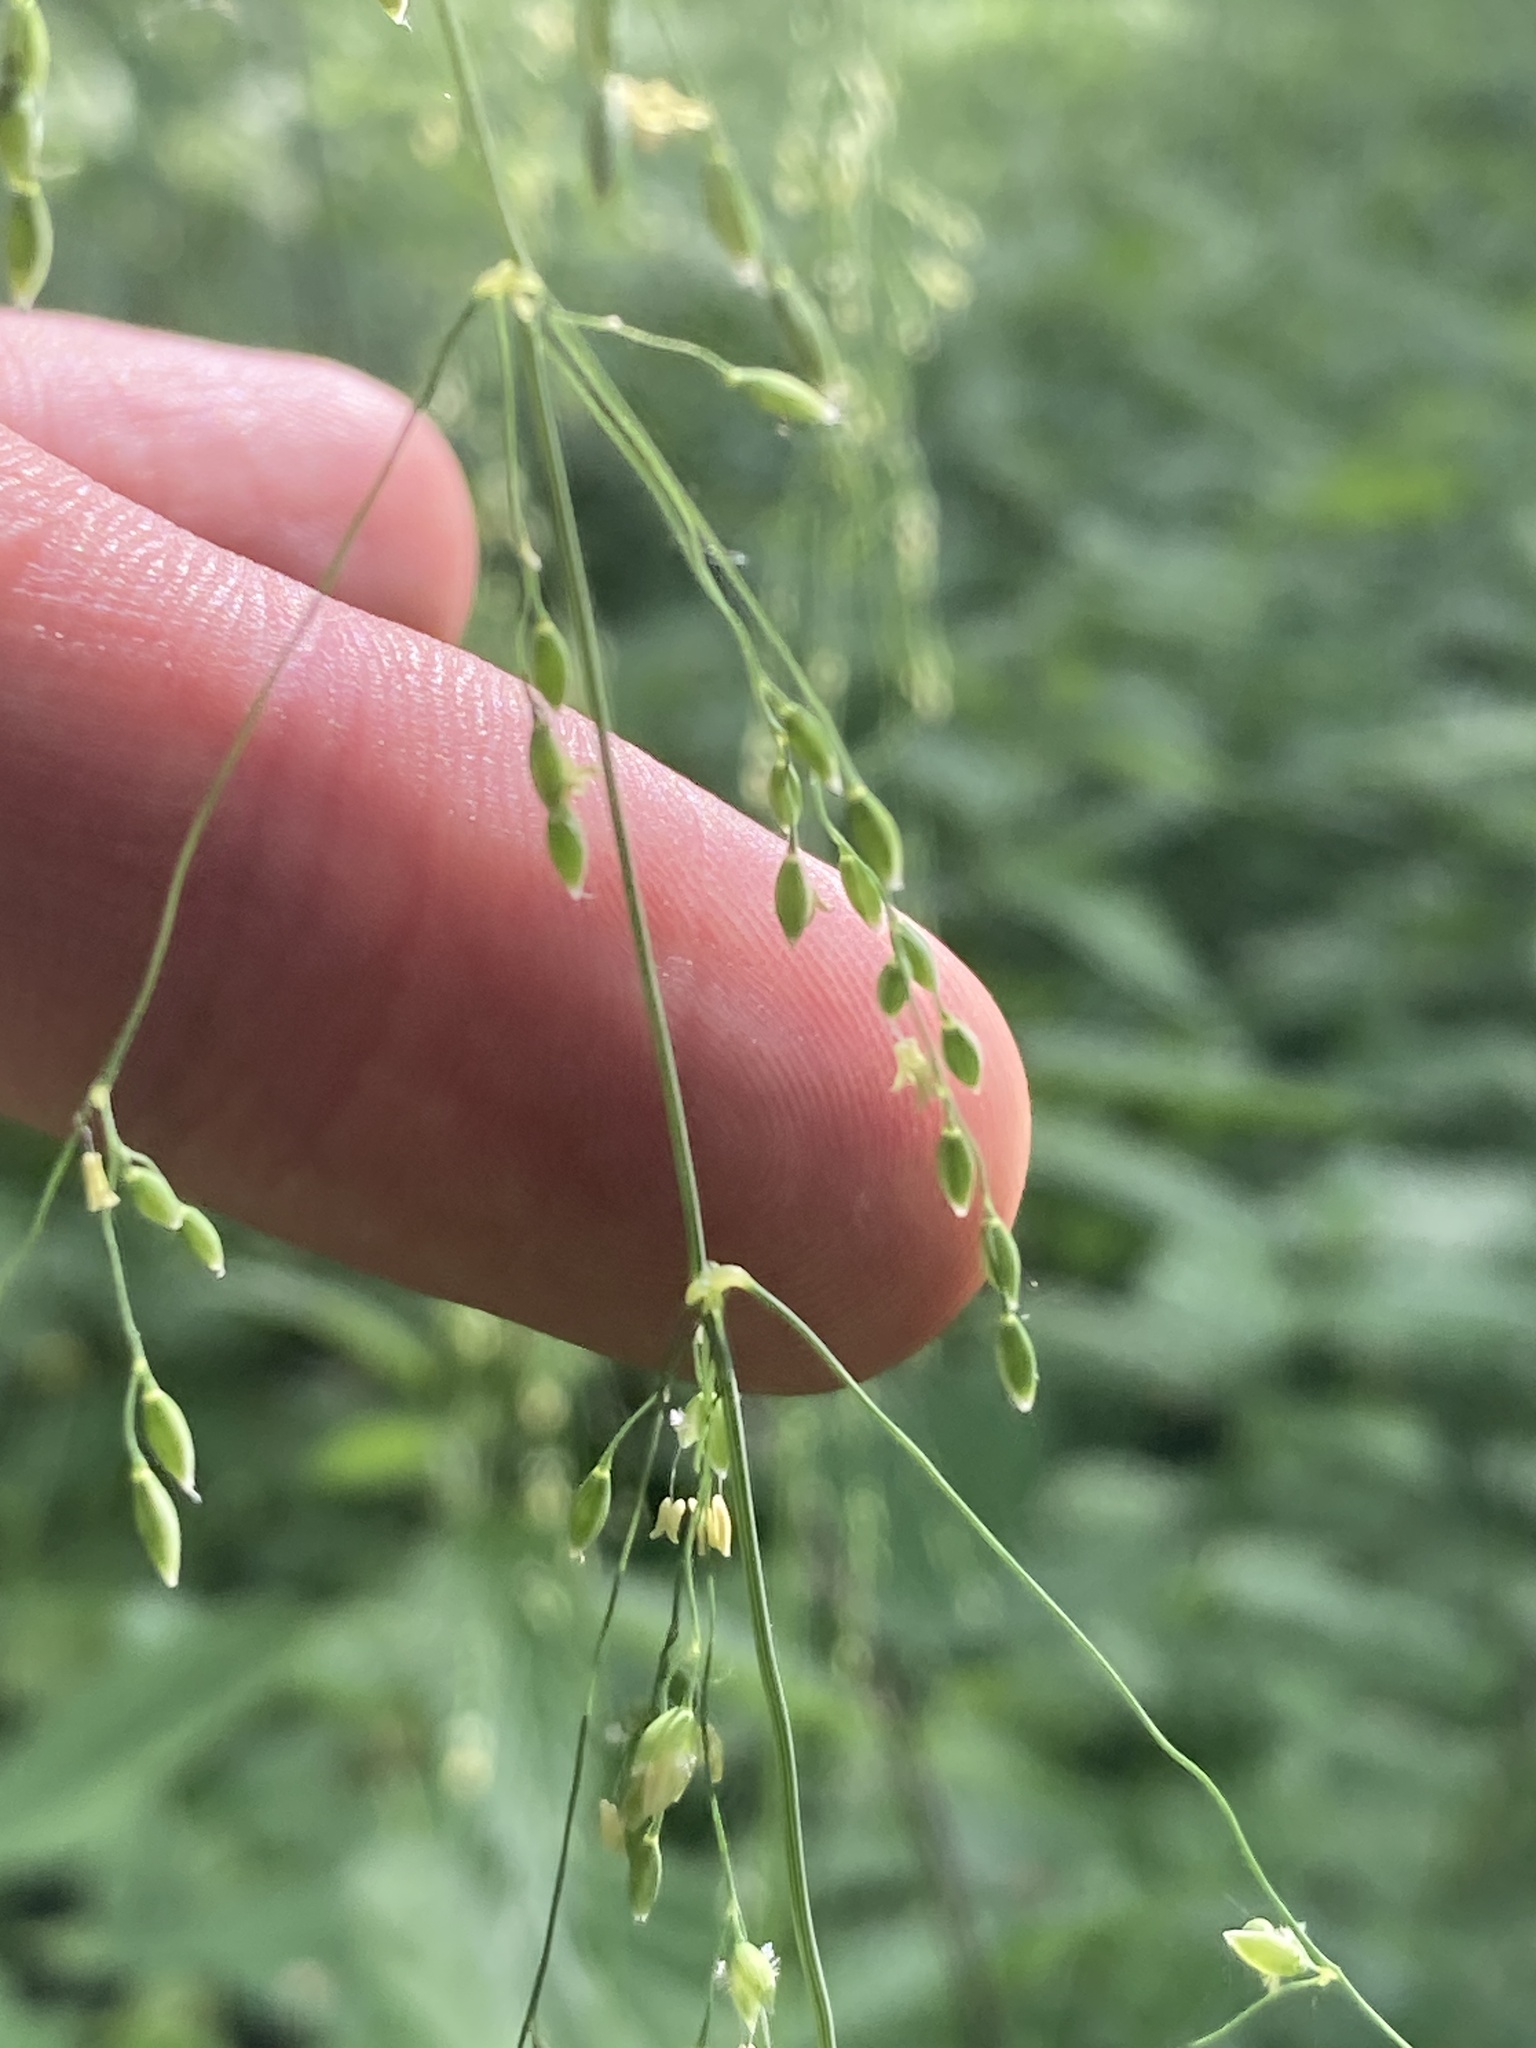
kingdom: Plantae
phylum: Tracheophyta
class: Liliopsida
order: Poales
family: Poaceae
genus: Milium
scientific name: Milium effusum
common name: Wood millet
